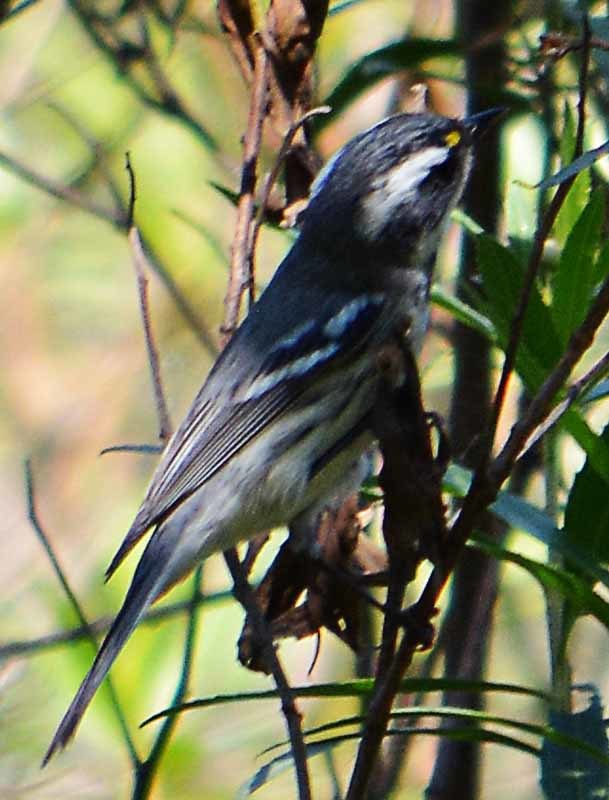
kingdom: Animalia
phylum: Chordata
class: Aves
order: Passeriformes
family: Parulidae
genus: Setophaga
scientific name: Setophaga nigrescens
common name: Black-throated gray warbler
